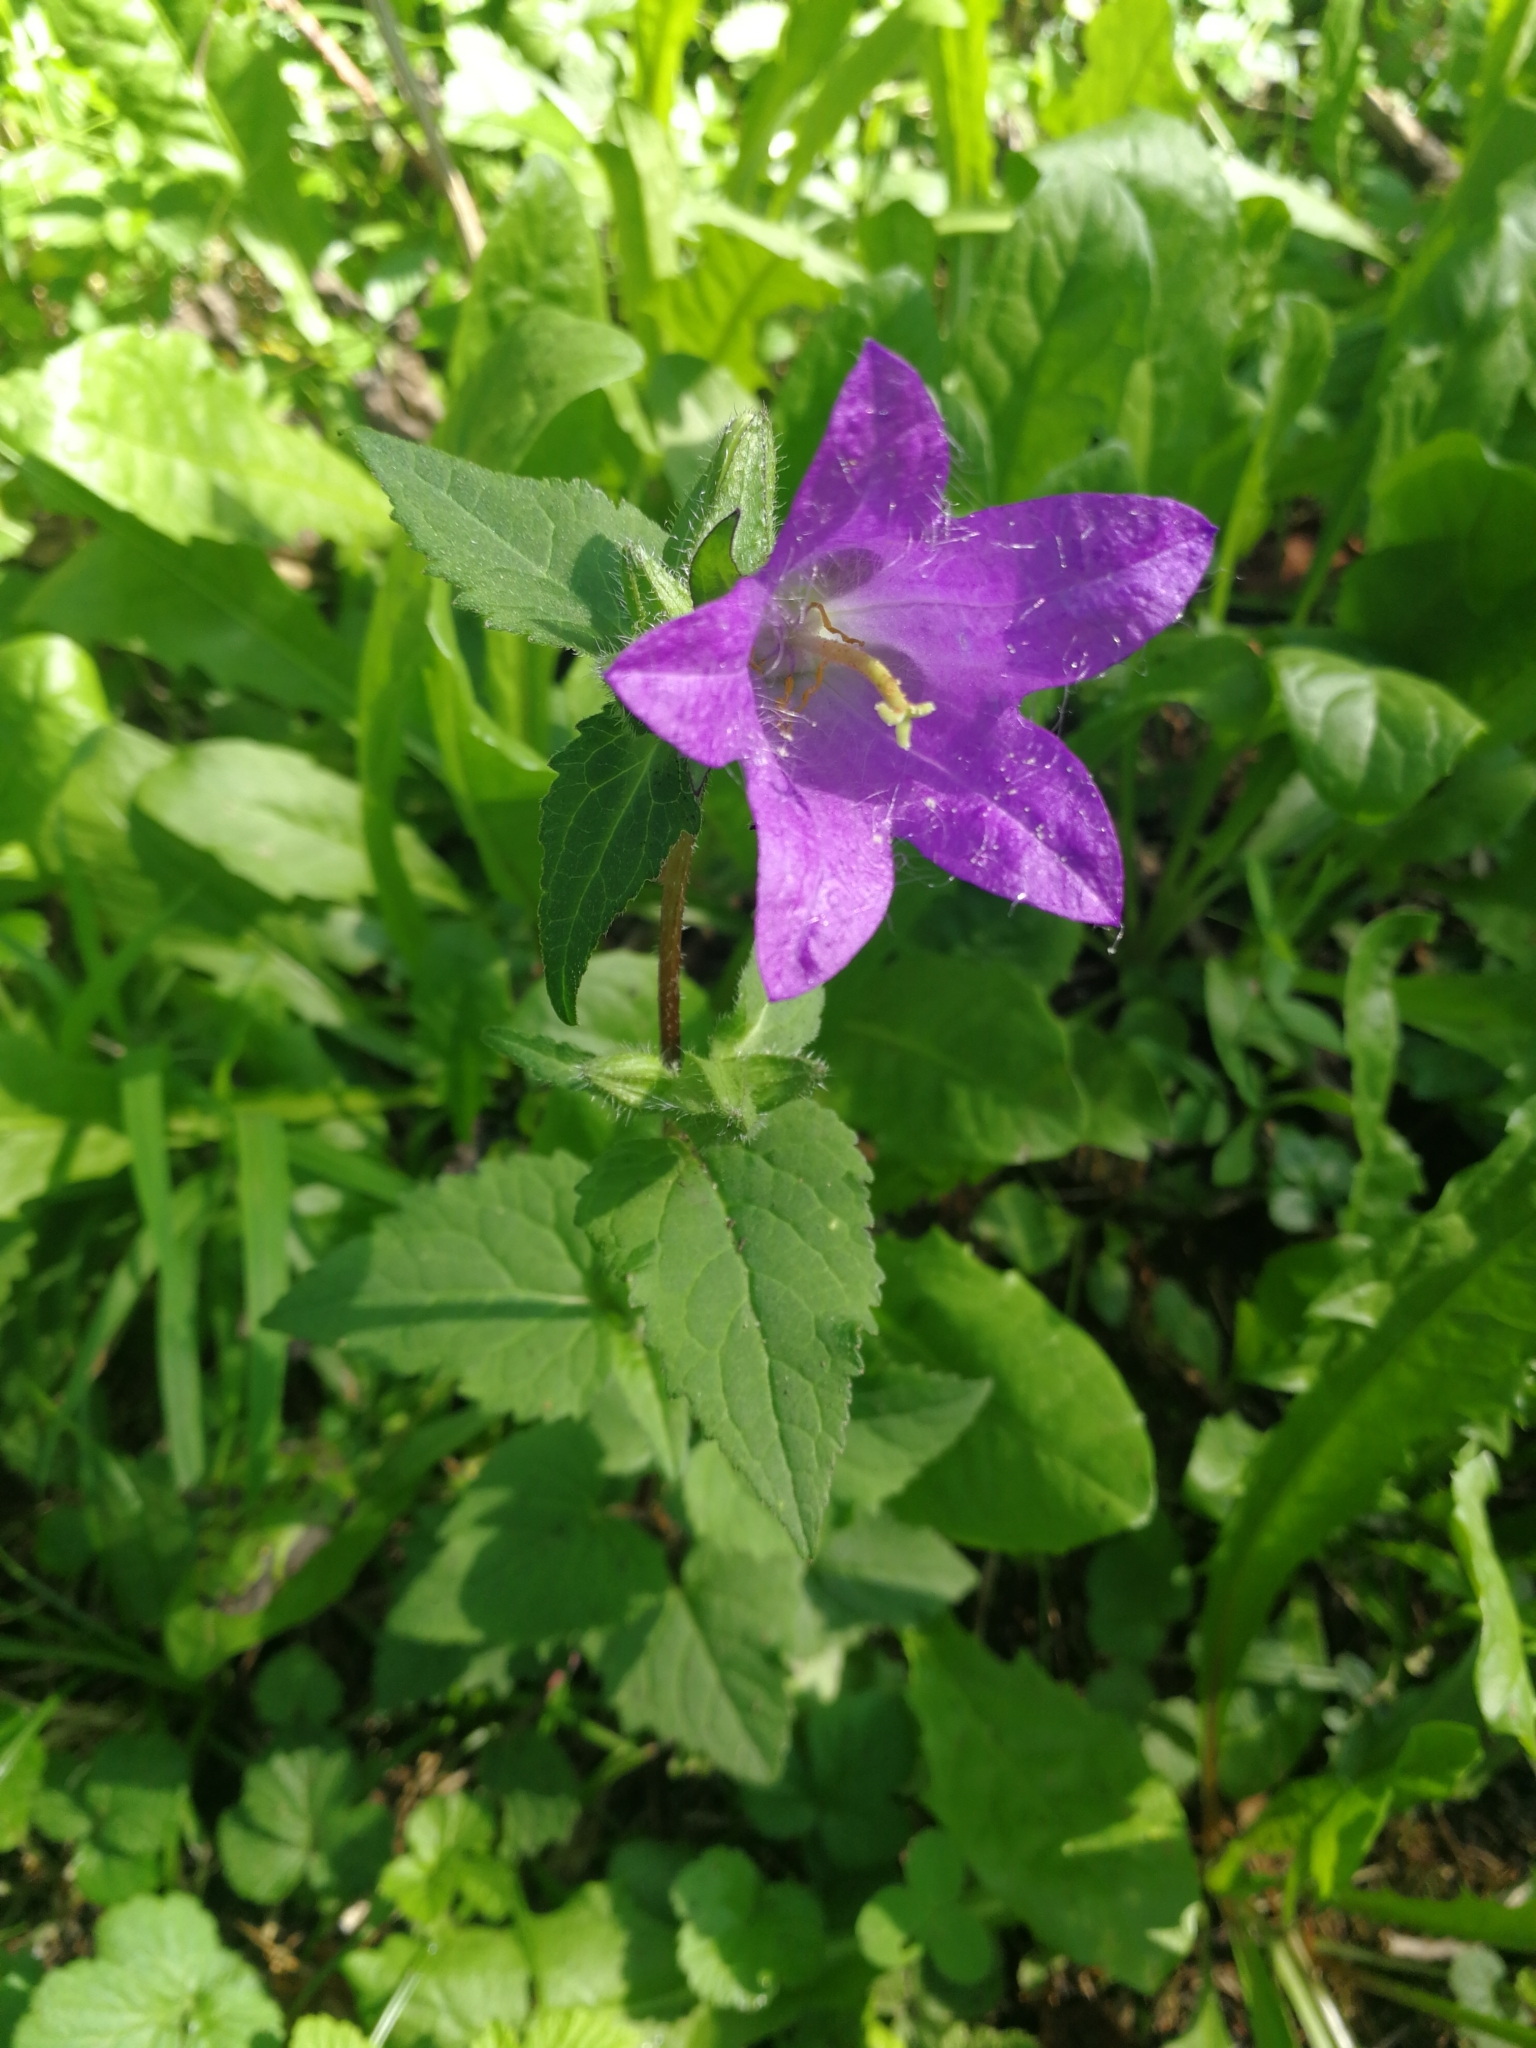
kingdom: Plantae
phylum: Tracheophyta
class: Magnoliopsida
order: Asterales
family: Campanulaceae
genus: Campanula
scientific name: Campanula trachelium
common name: Nettle-leaved bellflower
